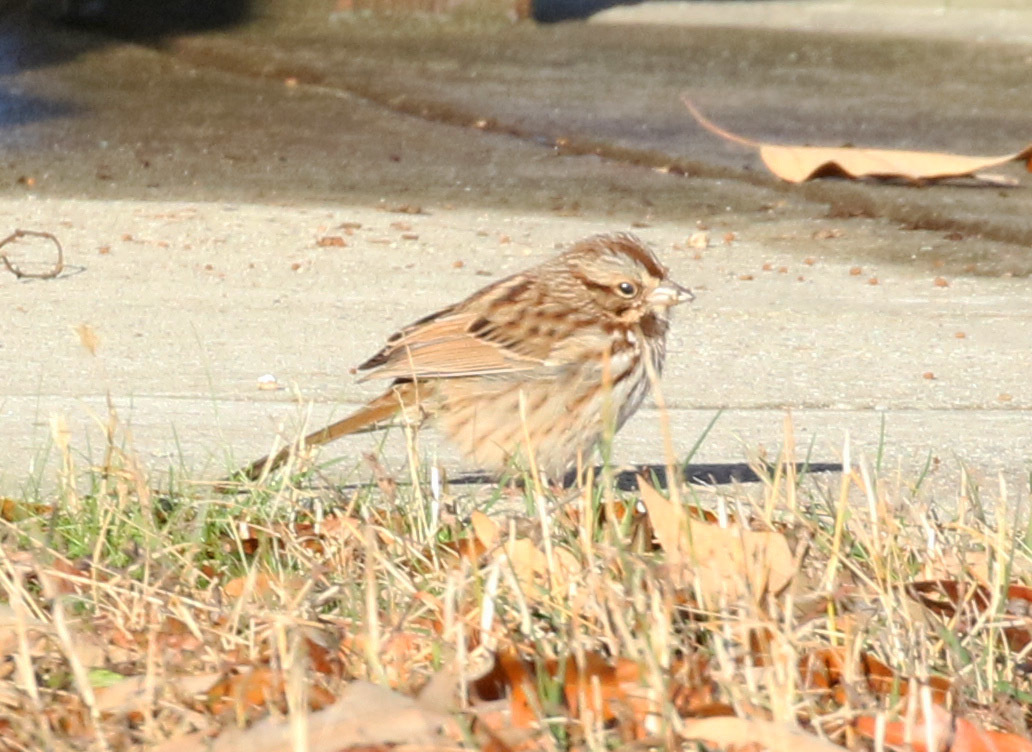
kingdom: Animalia
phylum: Chordata
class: Aves
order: Passeriformes
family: Passerellidae
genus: Melospiza
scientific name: Melospiza melodia
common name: Song sparrow
